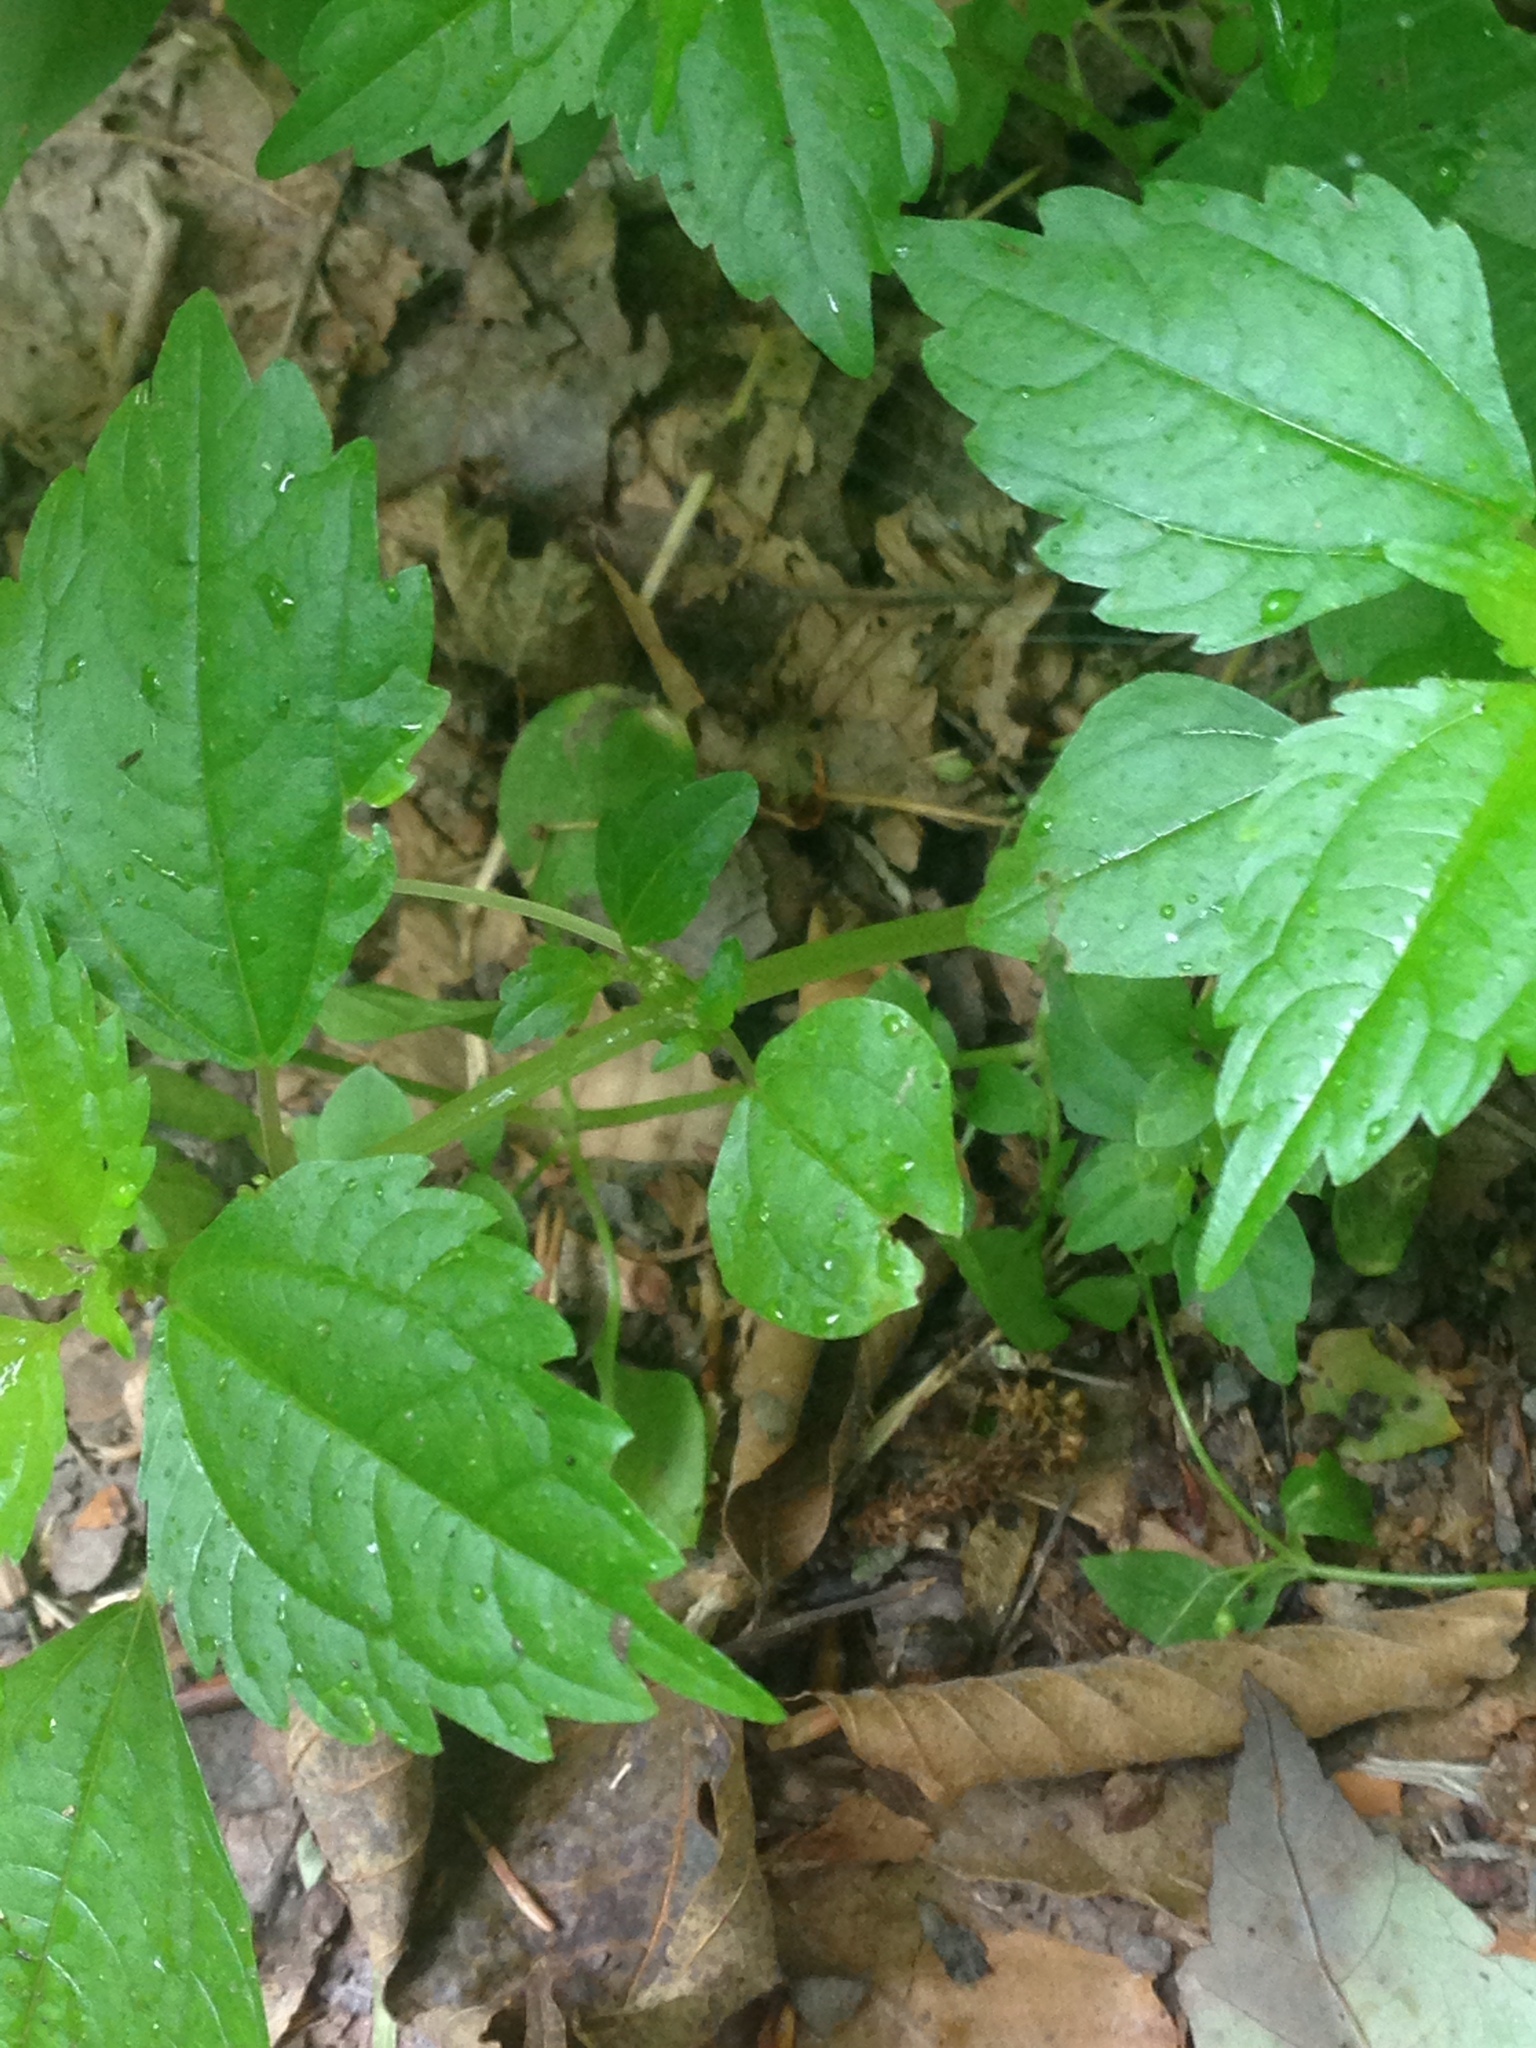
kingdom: Plantae
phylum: Tracheophyta
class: Magnoliopsida
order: Rosales
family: Urticaceae
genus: Pilea
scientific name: Pilea pumila
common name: Clearweed
